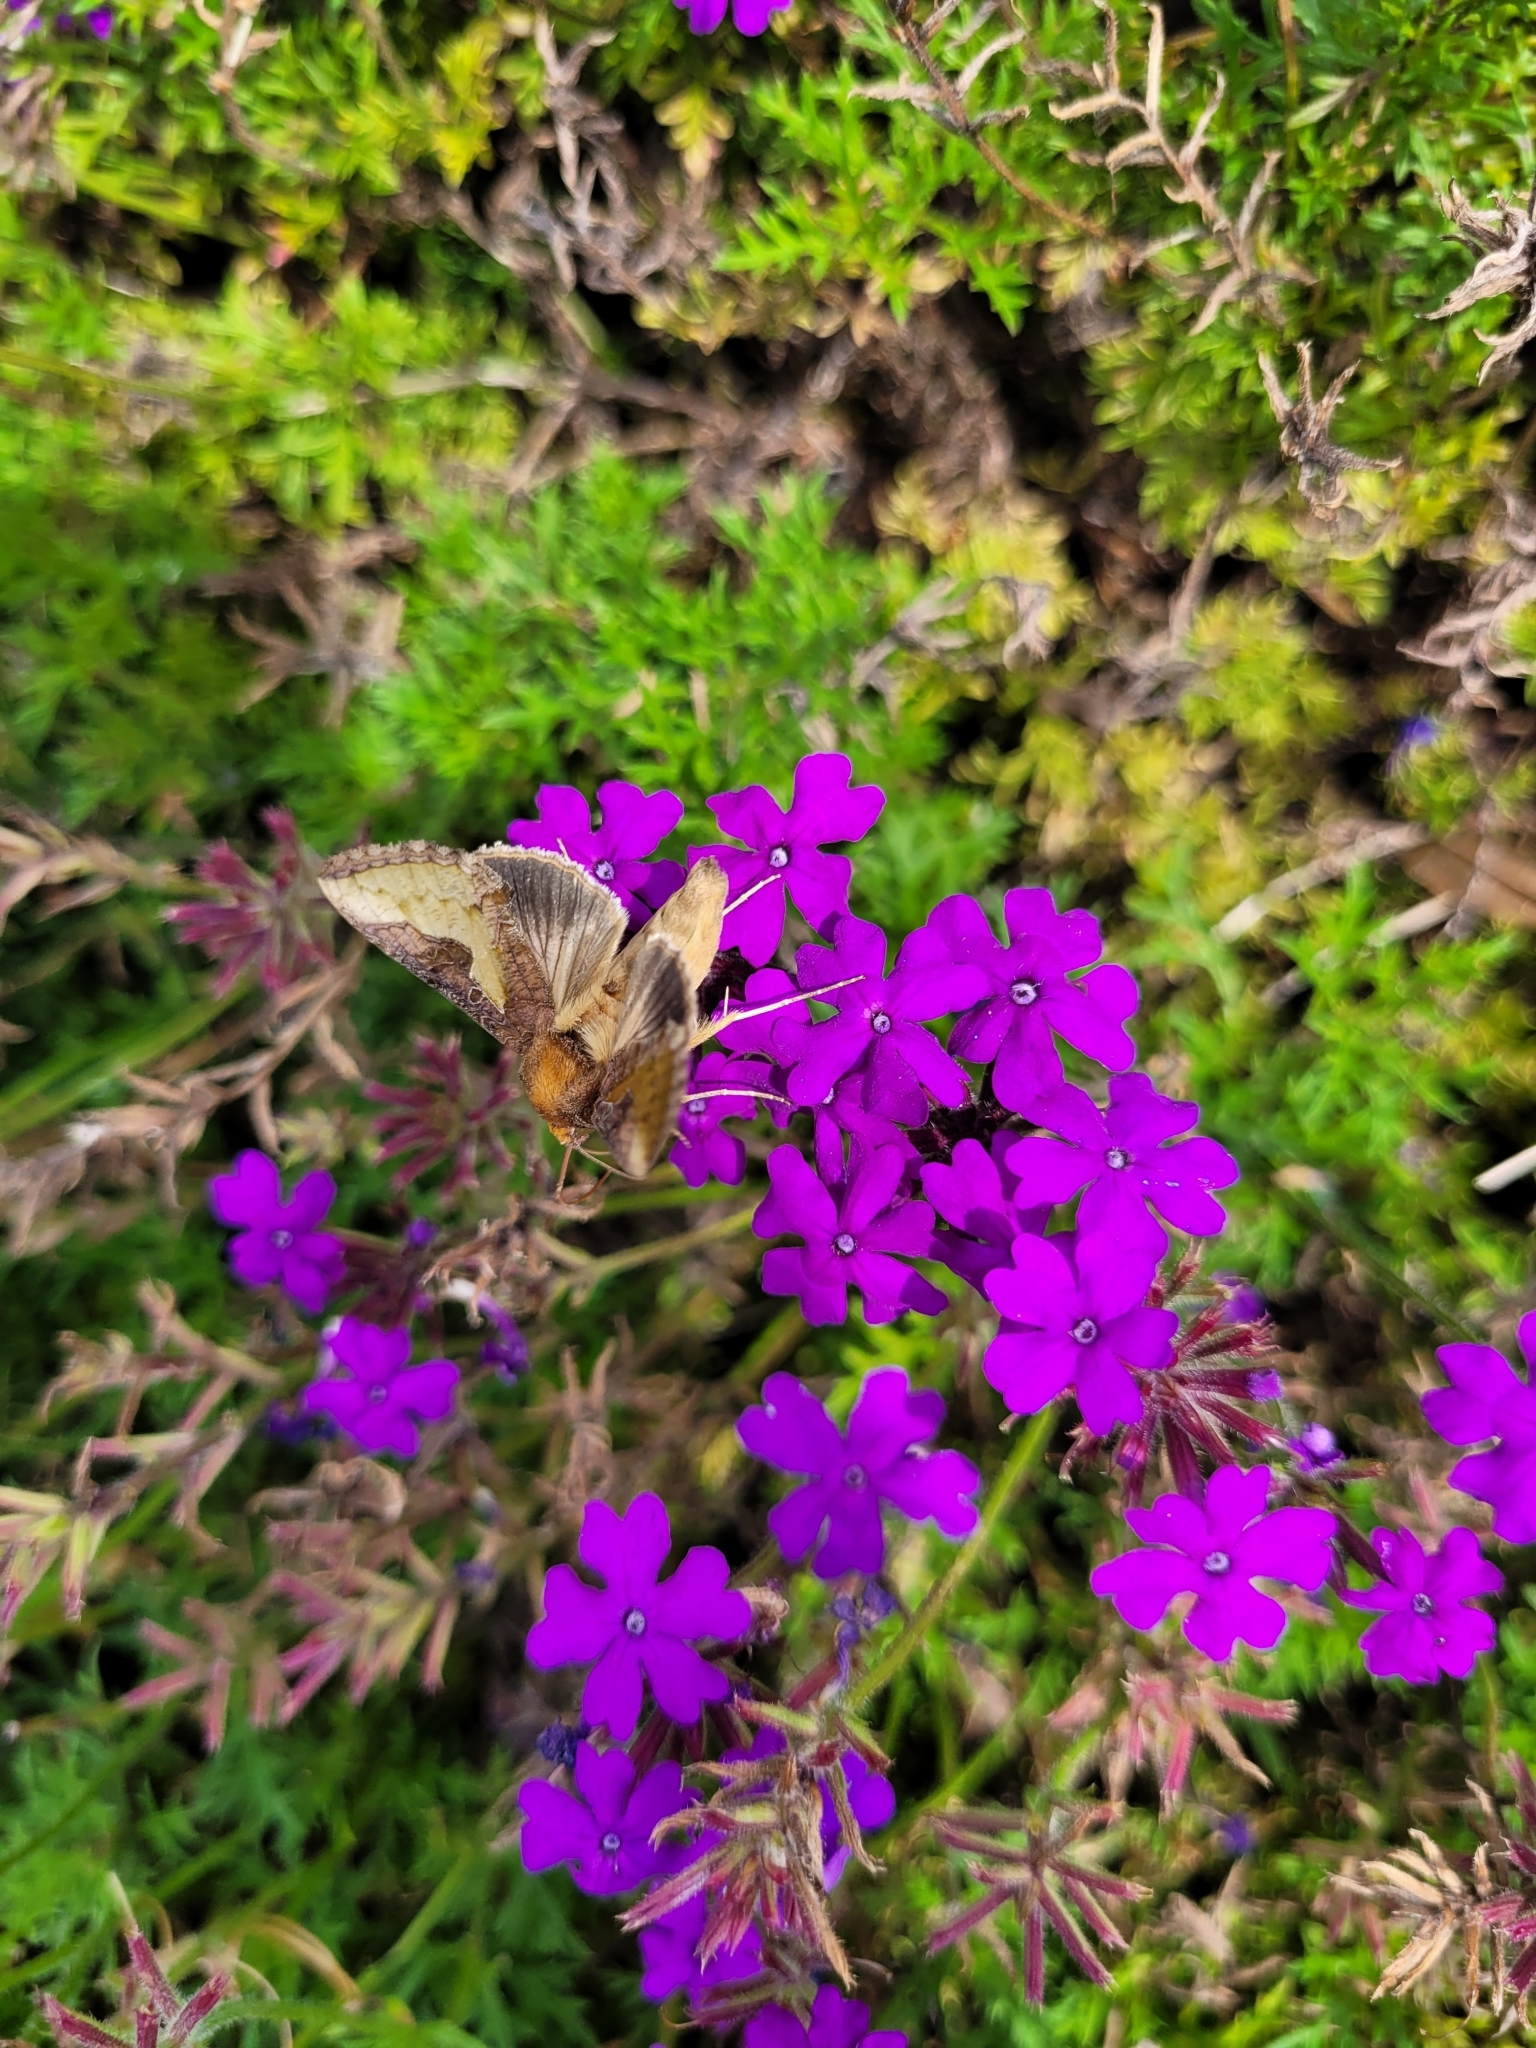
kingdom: Animalia
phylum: Arthropoda
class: Insecta
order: Lepidoptera
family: Noctuidae
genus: Thysanoplusia
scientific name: Thysanoplusia orichalcea
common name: Slender burnished brass, golden plusia
